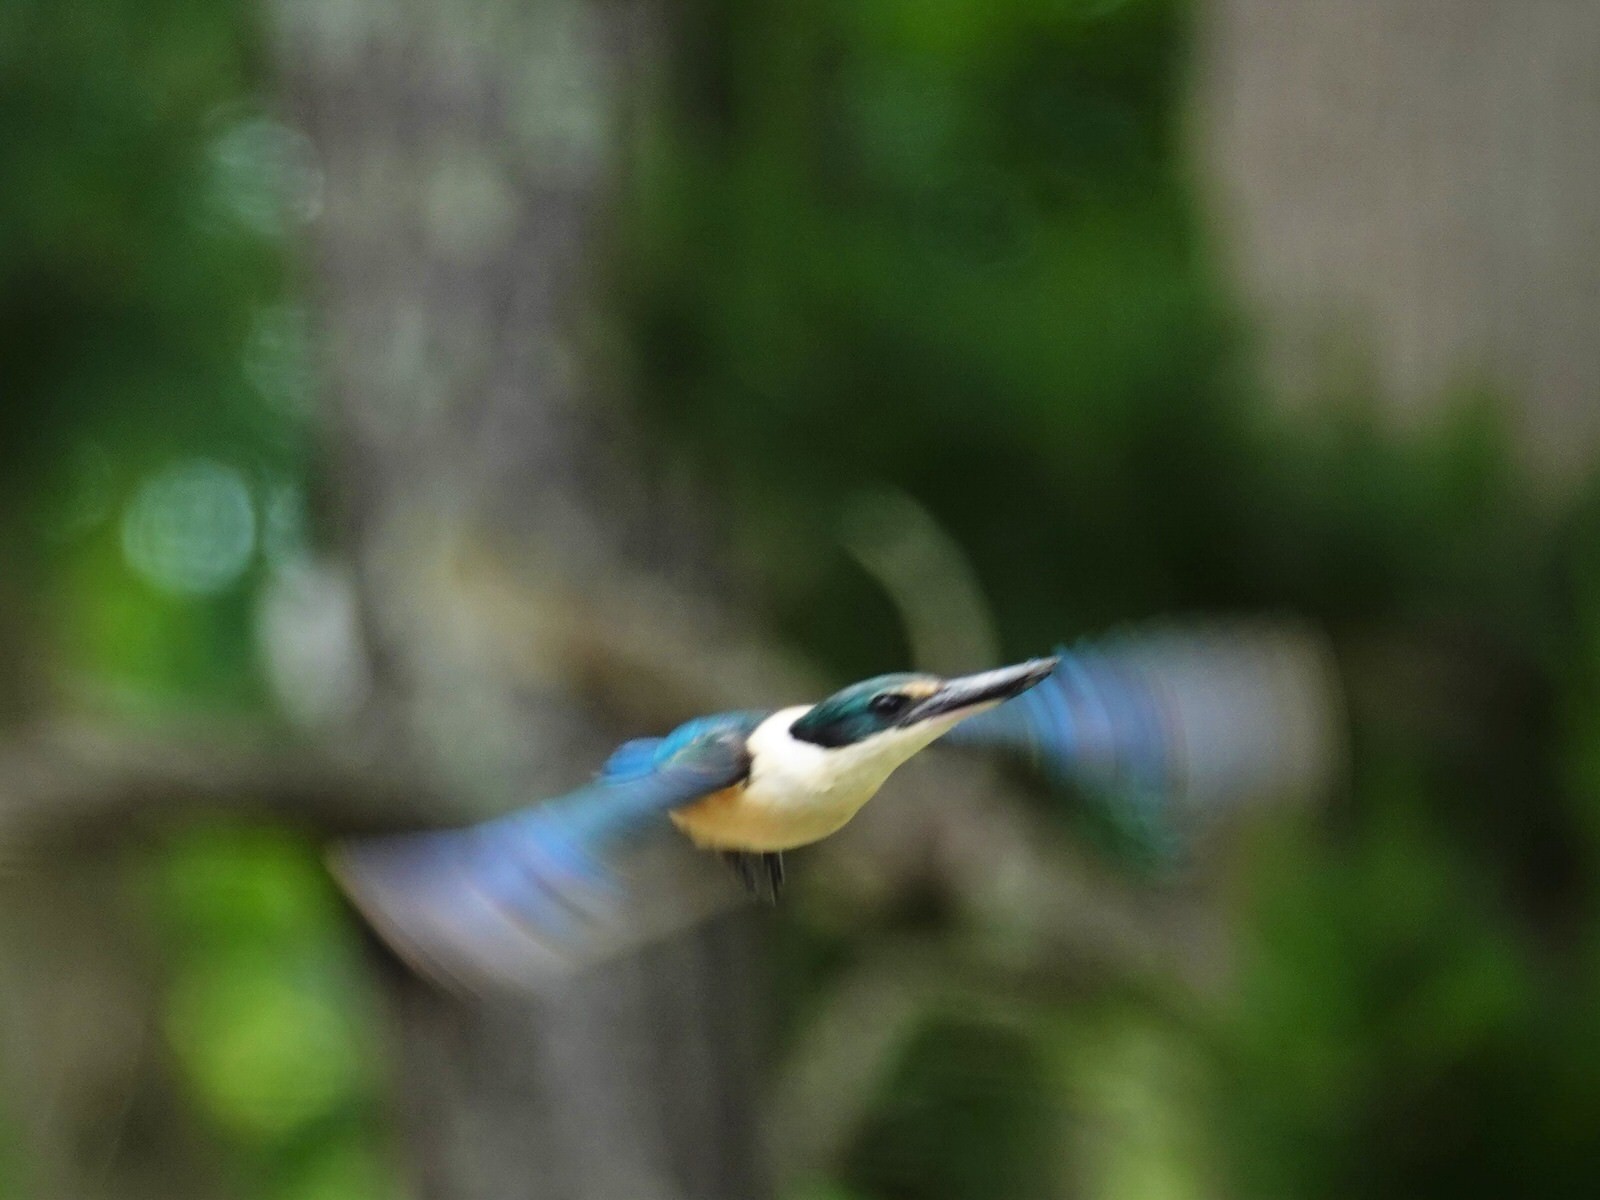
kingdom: Animalia
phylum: Chordata
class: Aves
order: Coraciiformes
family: Alcedinidae
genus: Todiramphus
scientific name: Todiramphus sanctus
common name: Sacred kingfisher
